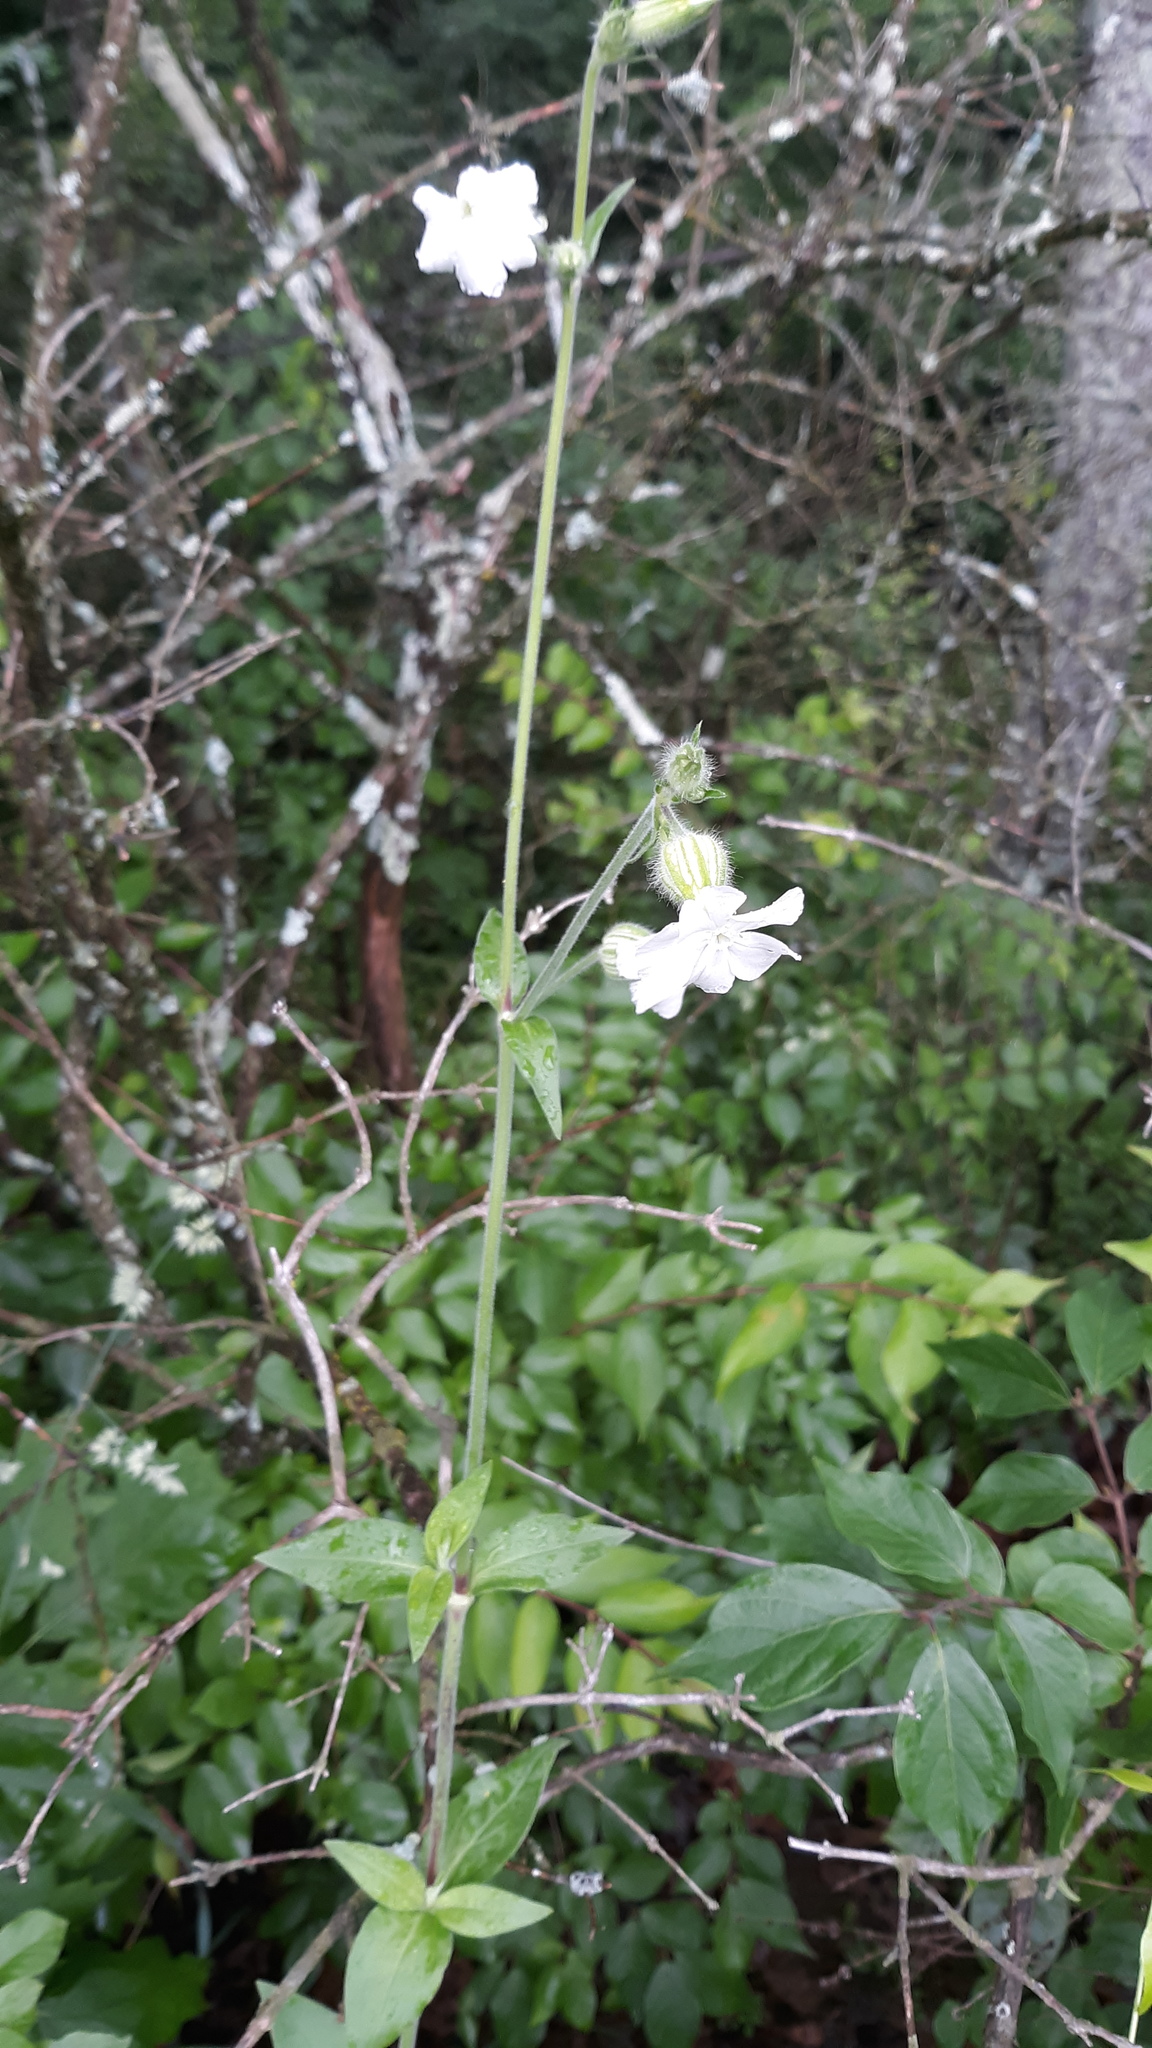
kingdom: Plantae
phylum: Tracheophyta
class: Magnoliopsida
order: Caryophyllales
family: Caryophyllaceae
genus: Silene
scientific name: Silene latifolia
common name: White campion
